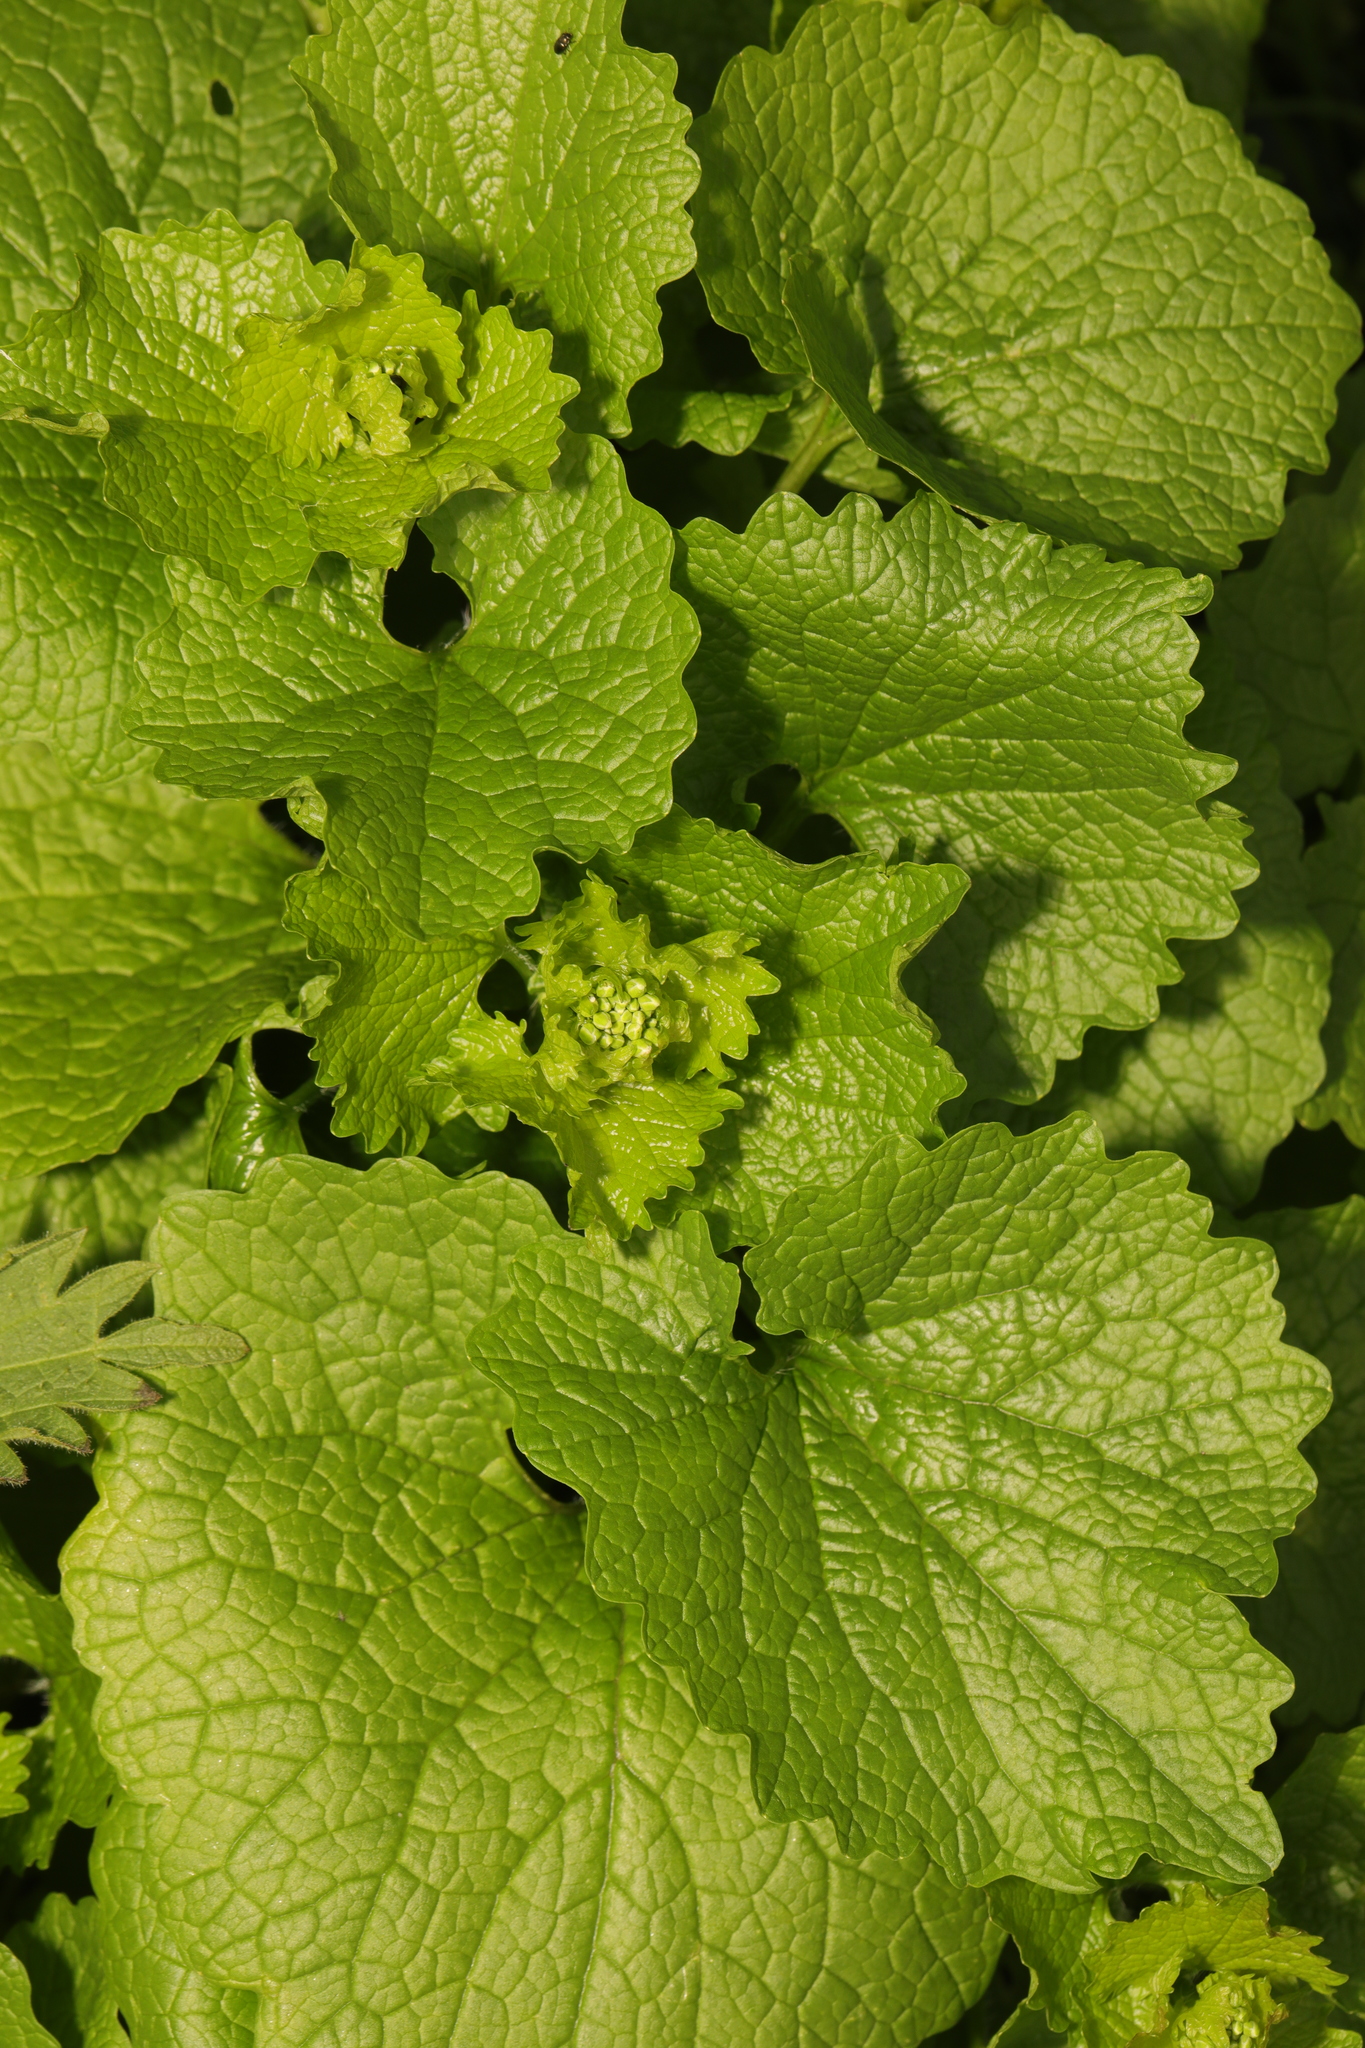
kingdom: Plantae
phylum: Tracheophyta
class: Magnoliopsida
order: Brassicales
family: Brassicaceae
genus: Alliaria
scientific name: Alliaria petiolata
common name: Garlic mustard
